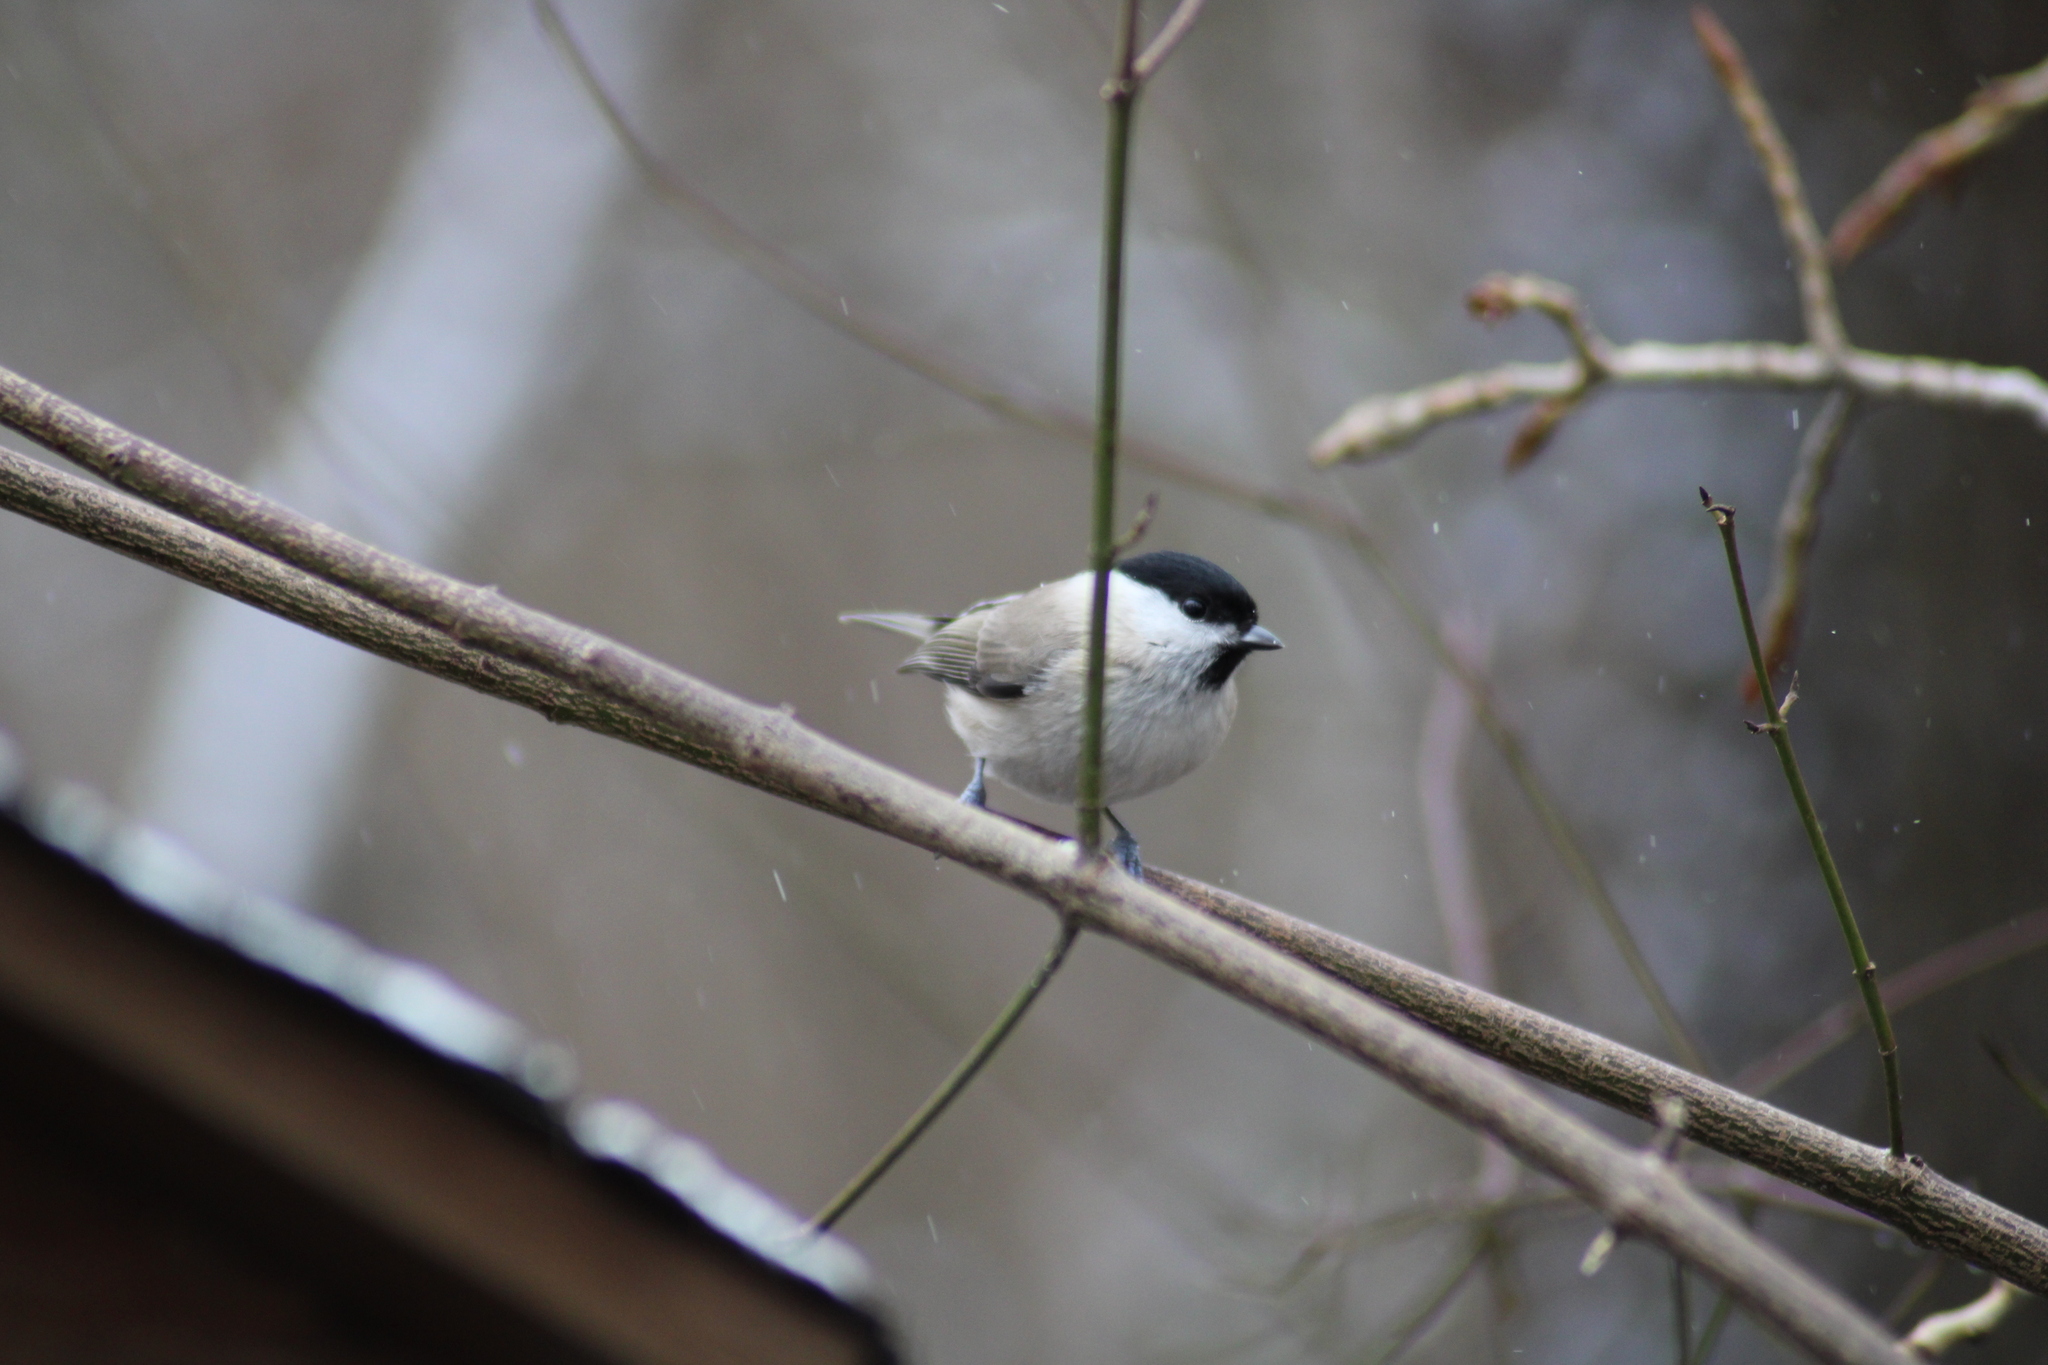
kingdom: Animalia
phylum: Chordata
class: Aves
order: Passeriformes
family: Paridae
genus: Poecile
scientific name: Poecile palustris
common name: Marsh tit
